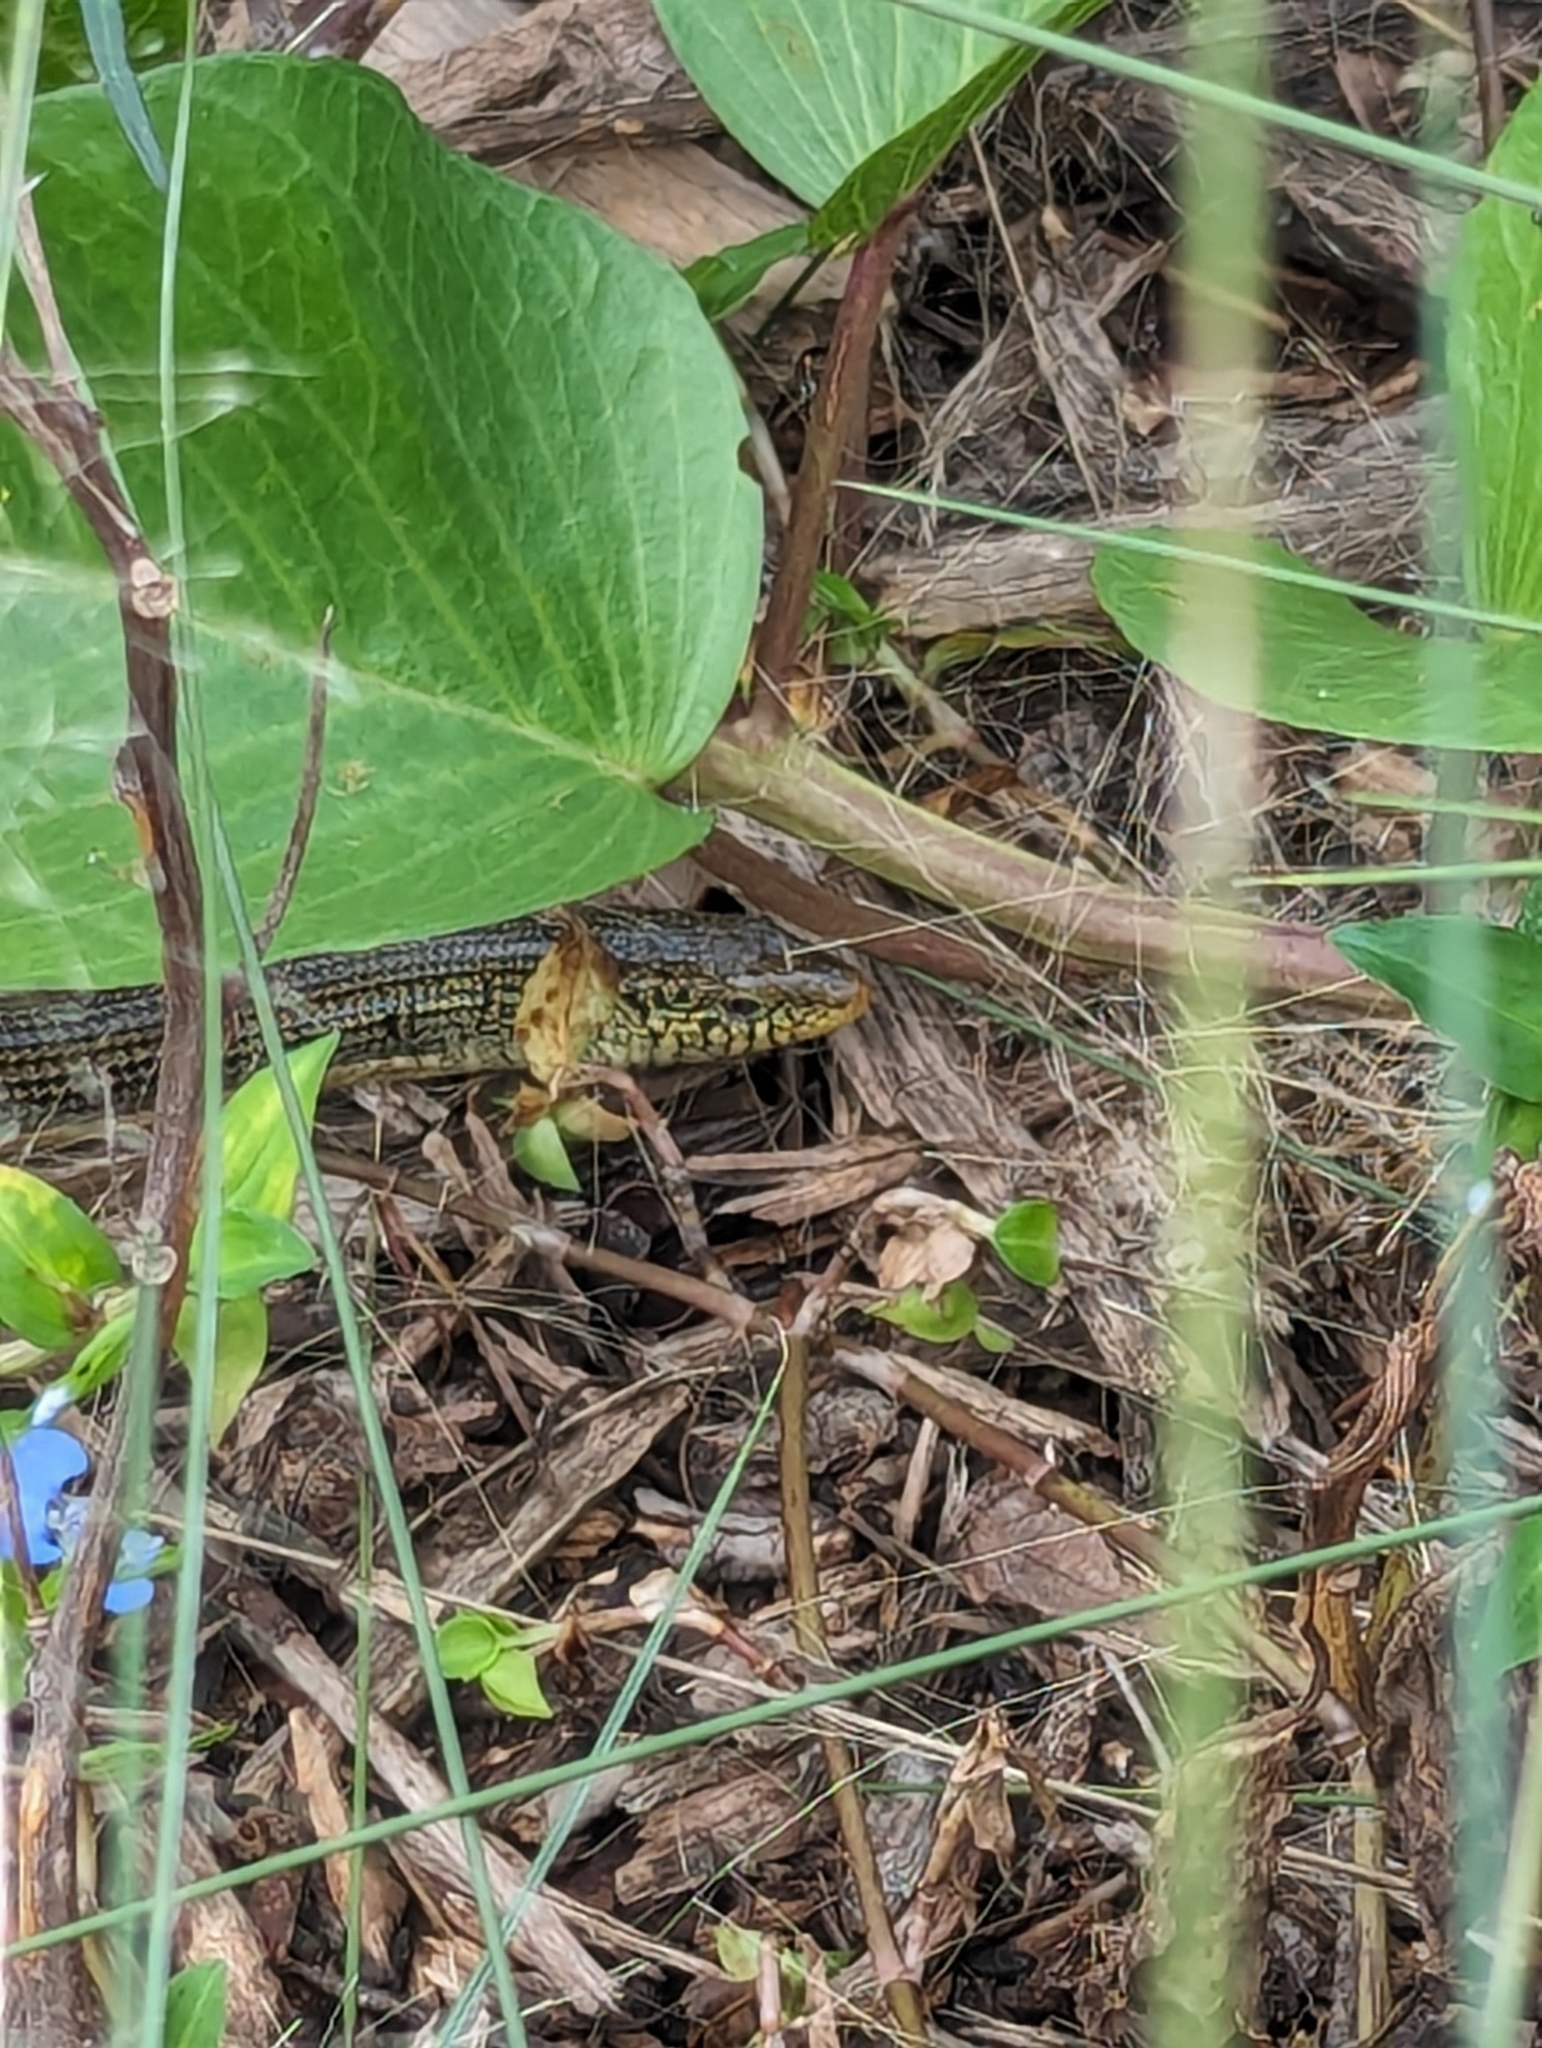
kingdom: Animalia
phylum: Chordata
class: Squamata
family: Anguidae
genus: Ophisaurus
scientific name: Ophisaurus ventralis
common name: Eastern glass lizard
